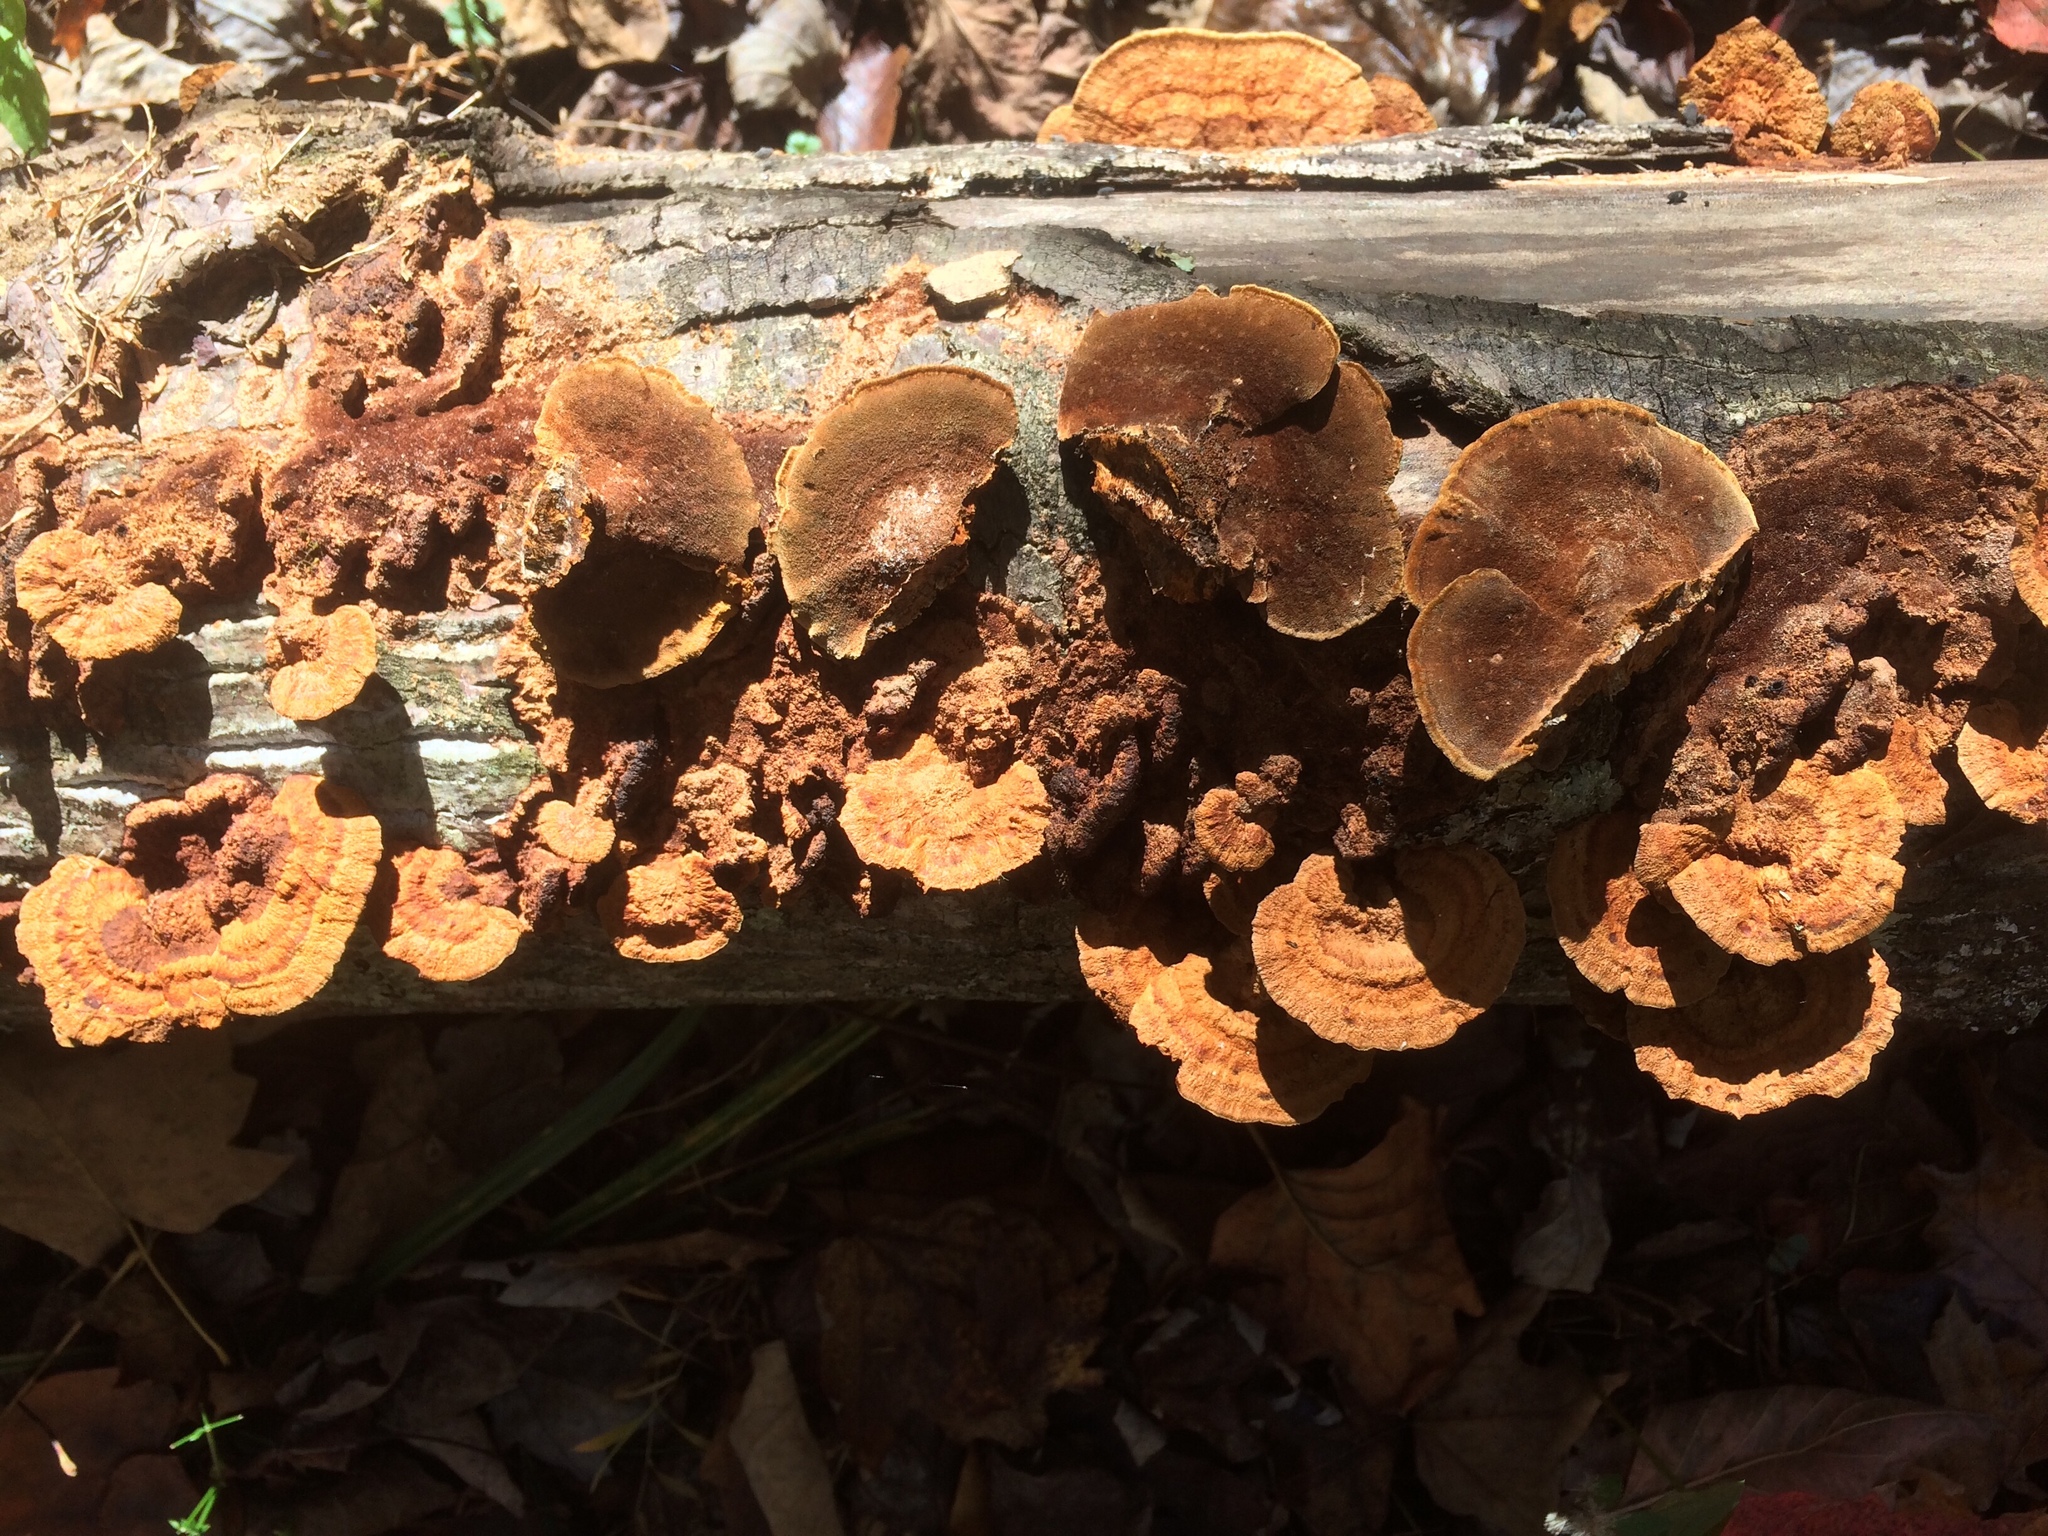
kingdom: Fungi
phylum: Basidiomycota
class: Agaricomycetes
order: Hymenochaetales
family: Hymenochaetaceae
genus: Phellinus
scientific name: Phellinus gilvus
